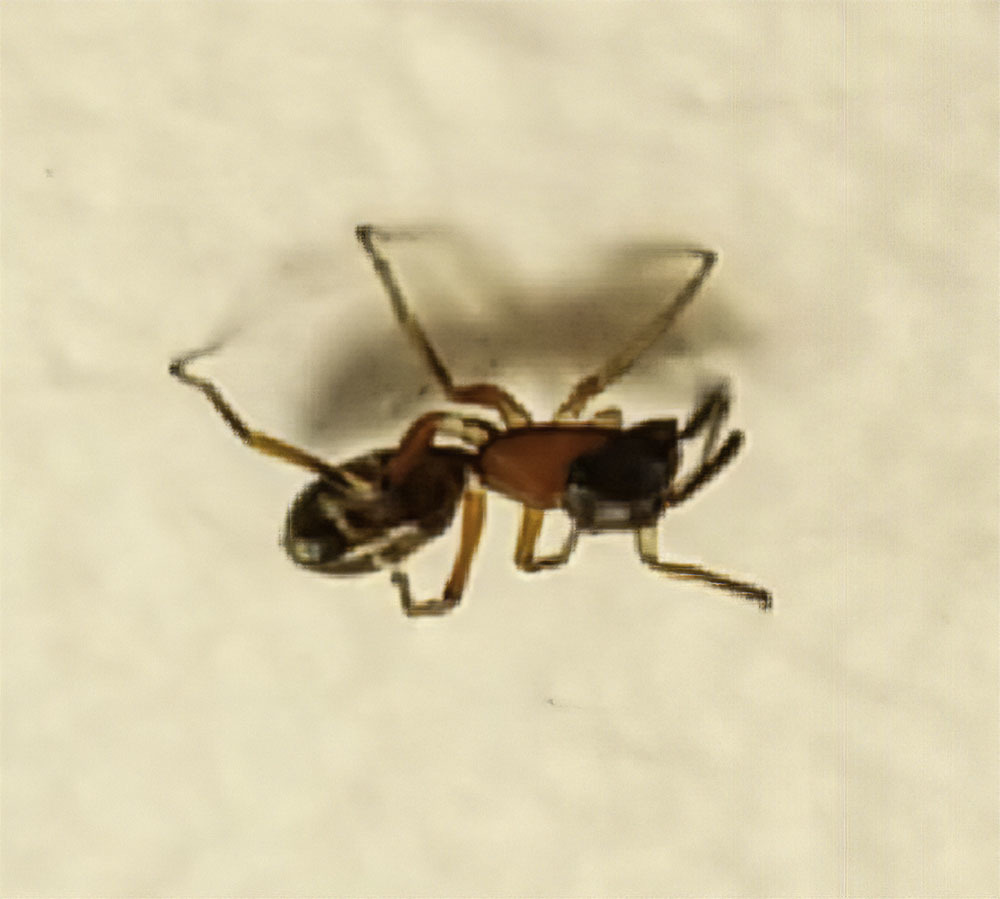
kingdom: Animalia
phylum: Arthropoda
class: Arachnida
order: Araneae
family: Salticidae
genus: Myrmarachne
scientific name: Myrmarachne formicaria
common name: Ant mimic jumping spider
